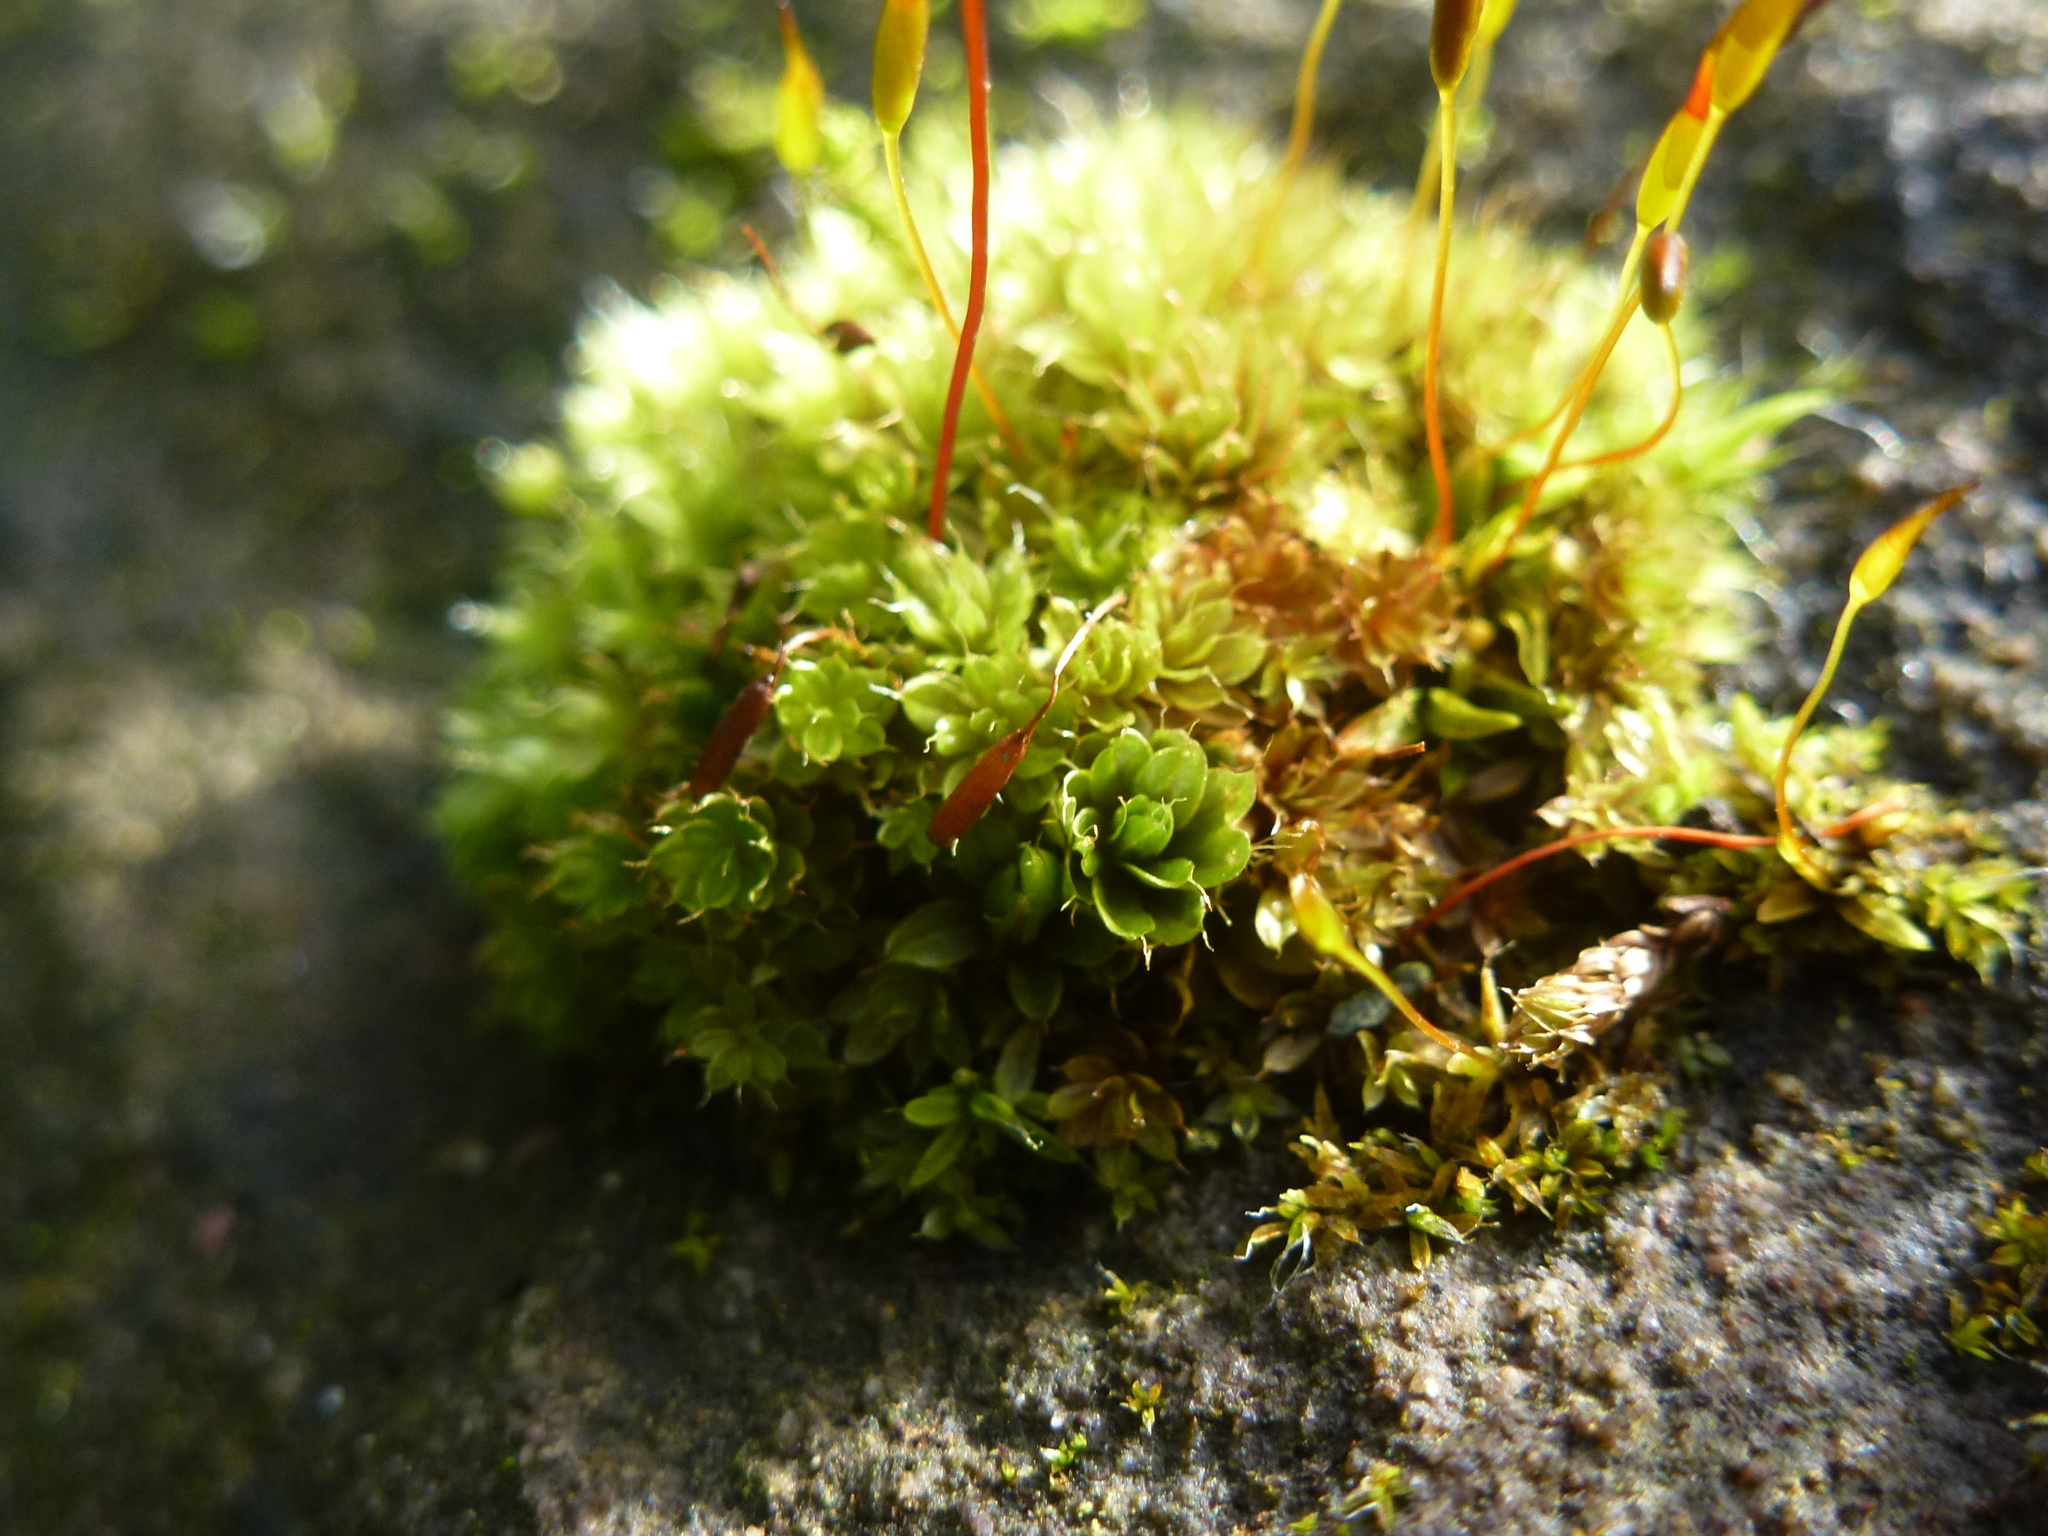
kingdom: Plantae
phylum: Bryophyta
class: Bryopsida
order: Bryales
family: Bryaceae
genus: Rosulabryum
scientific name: Rosulabryum capillare
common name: Capillary thread-moss
